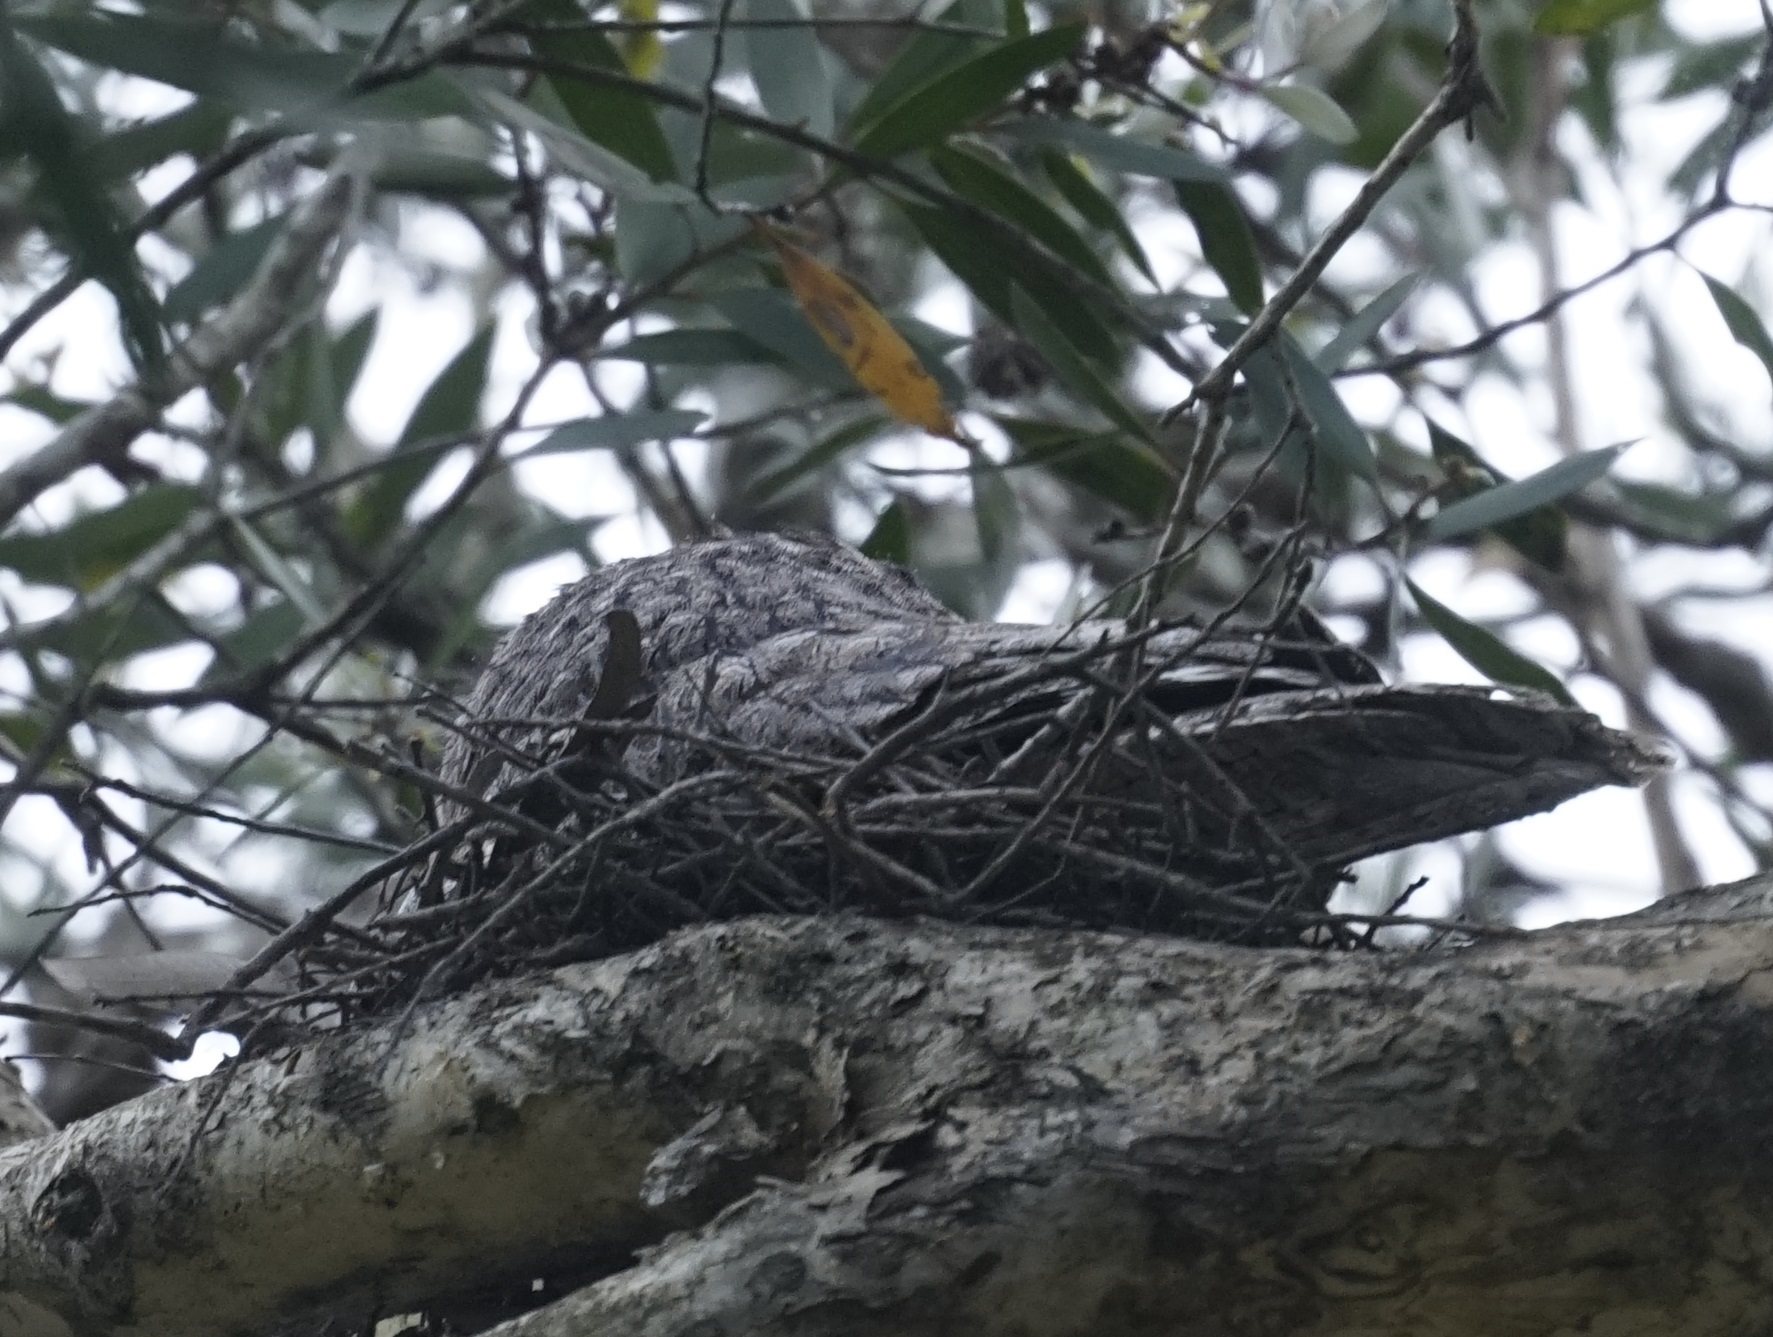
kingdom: Animalia
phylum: Chordata
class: Aves
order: Caprimulgiformes
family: Podargidae
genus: Podargus
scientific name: Podargus strigoides
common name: Tawny frogmouth
